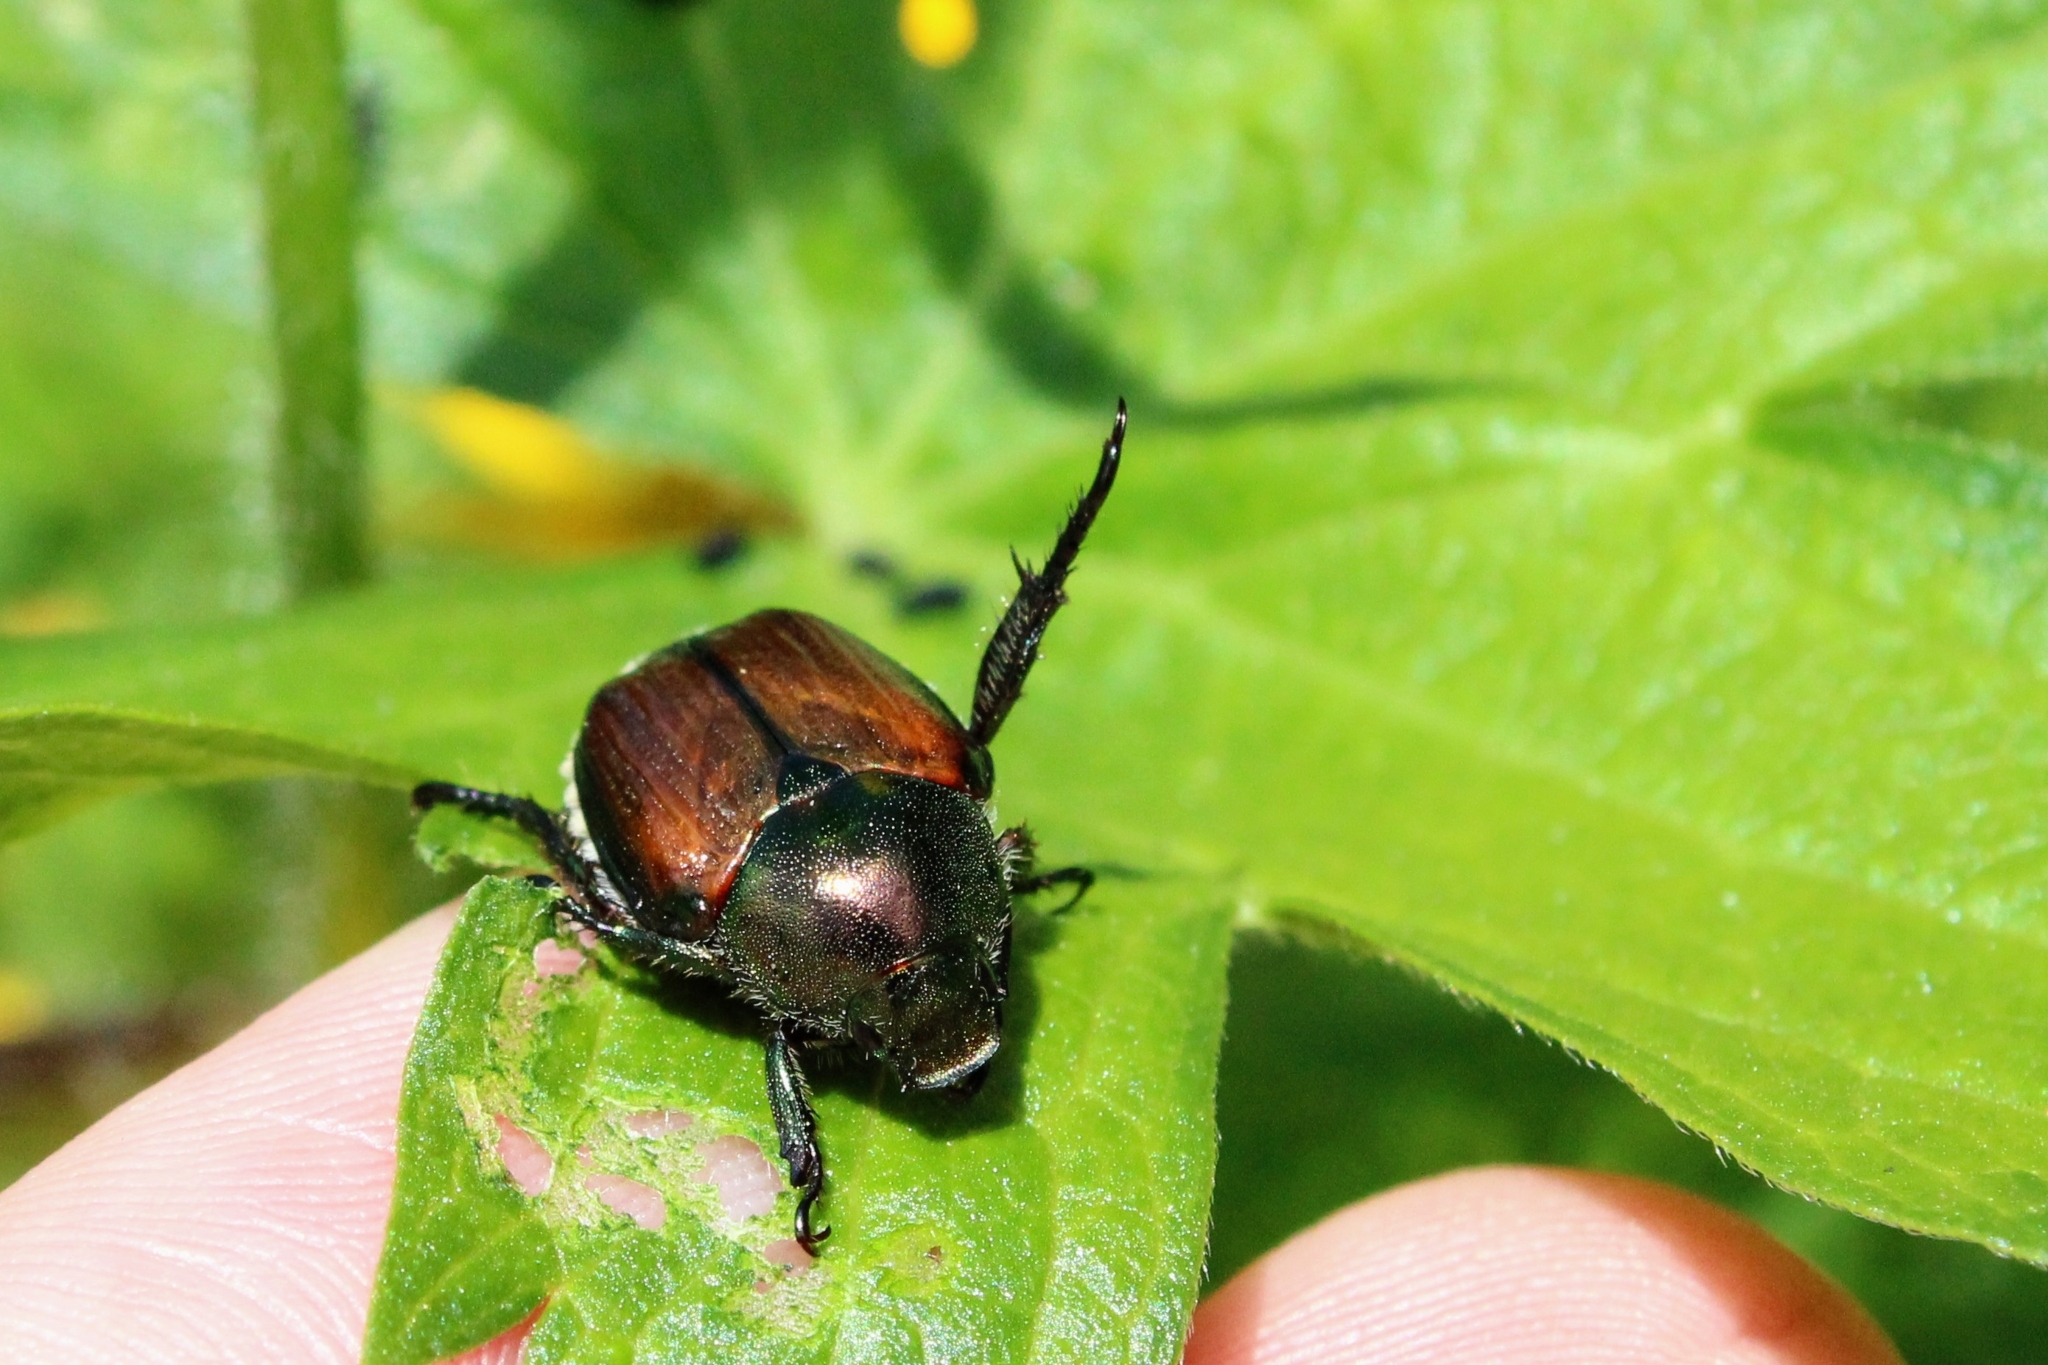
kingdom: Animalia
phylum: Arthropoda
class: Insecta
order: Coleoptera
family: Scarabaeidae
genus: Popillia
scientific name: Popillia japonica
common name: Japanese beetle
